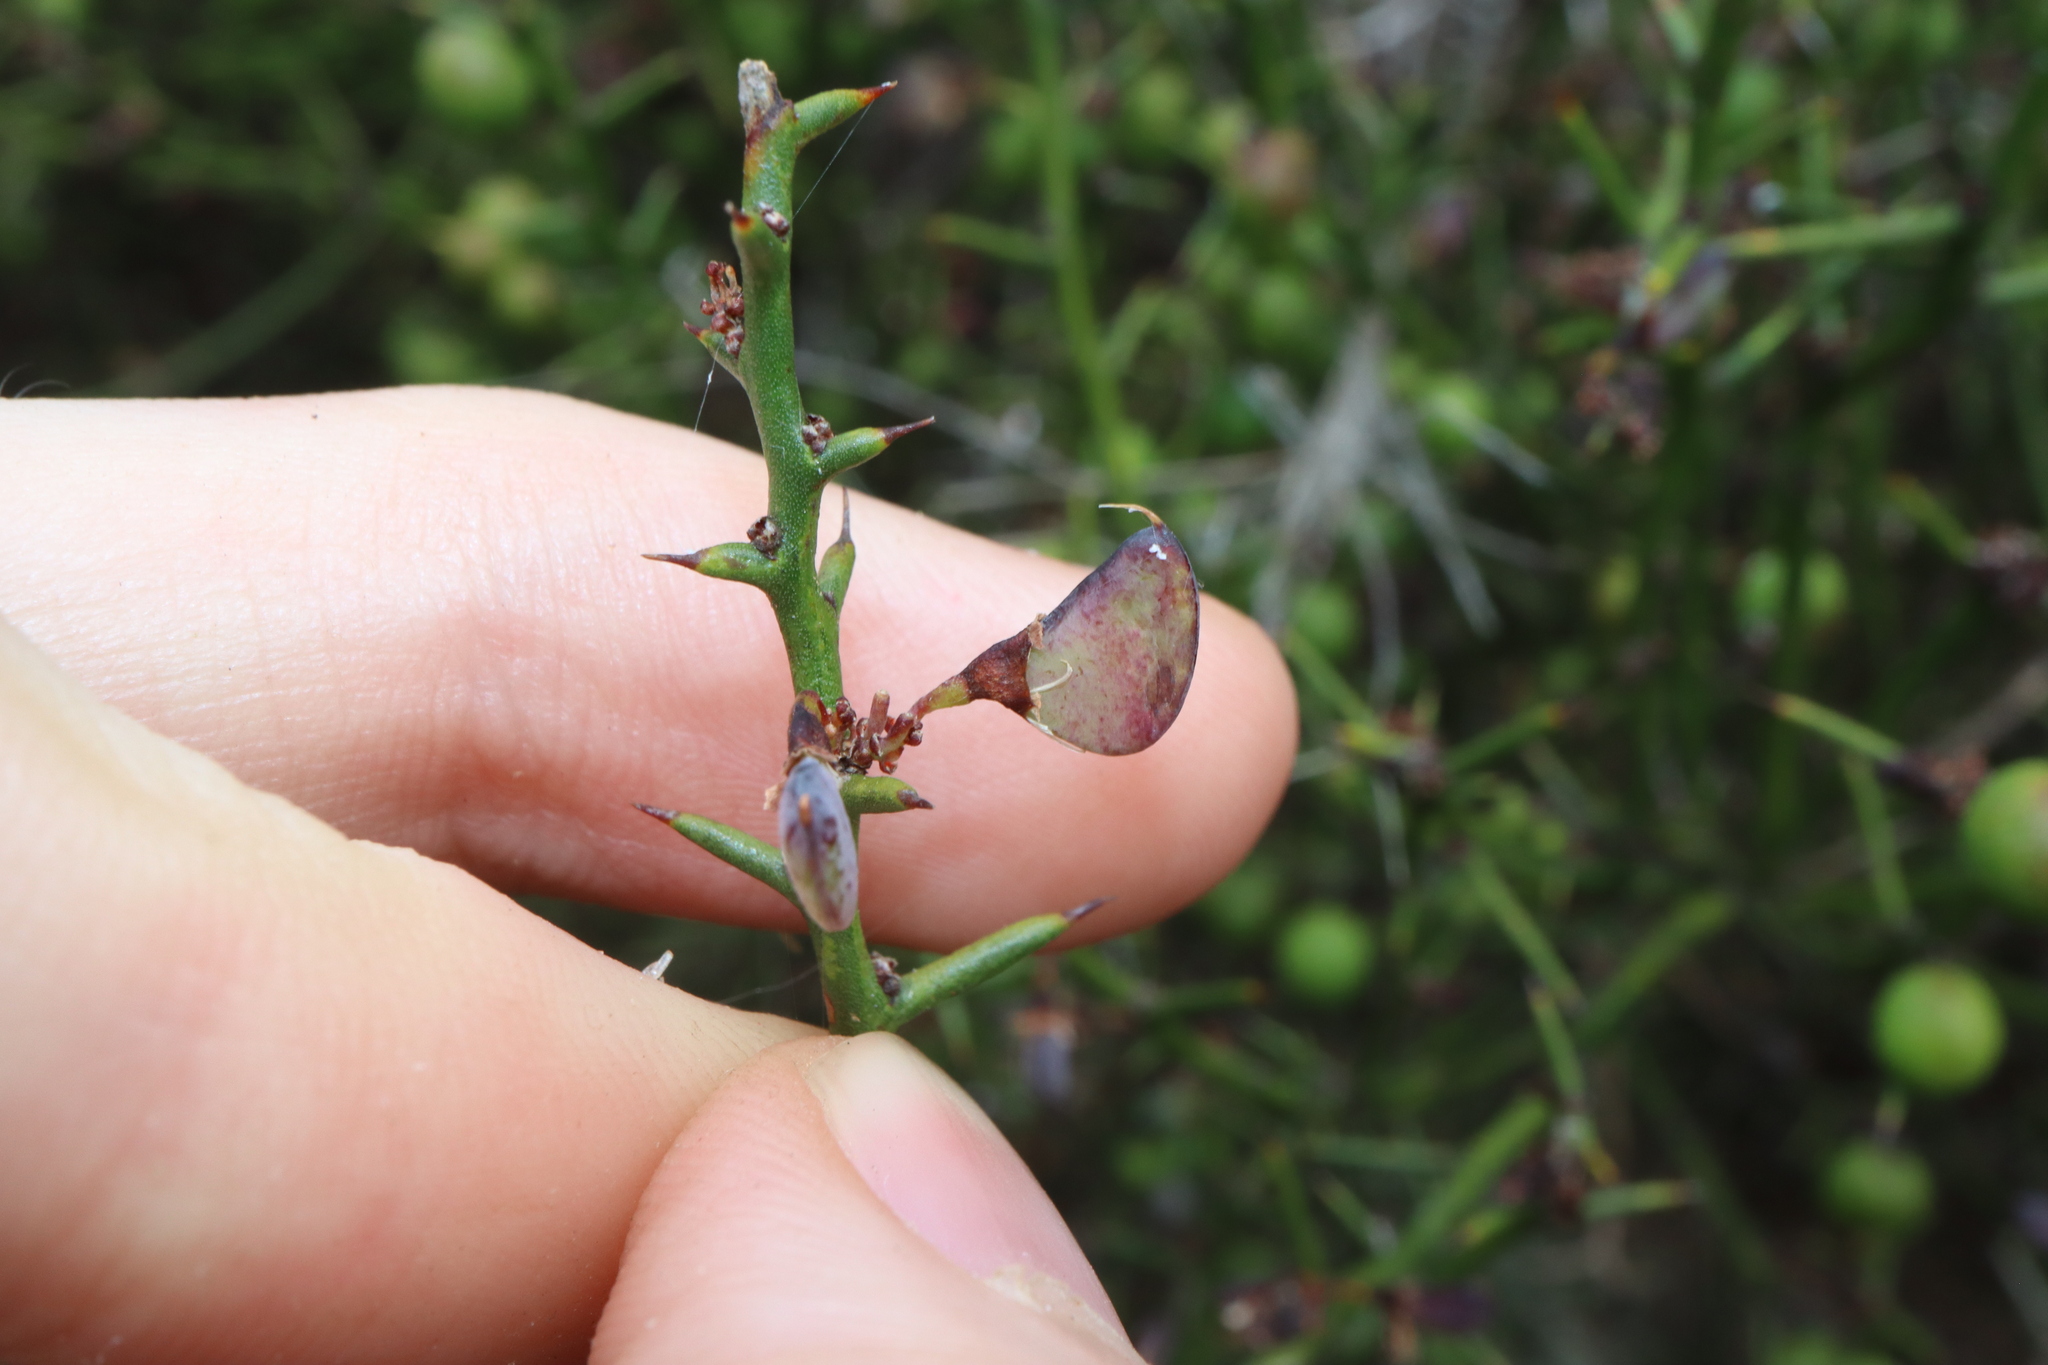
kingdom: Plantae
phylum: Tracheophyta
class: Magnoliopsida
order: Fabales
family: Fabaceae
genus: Daviesia
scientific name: Daviesia purpurascens
